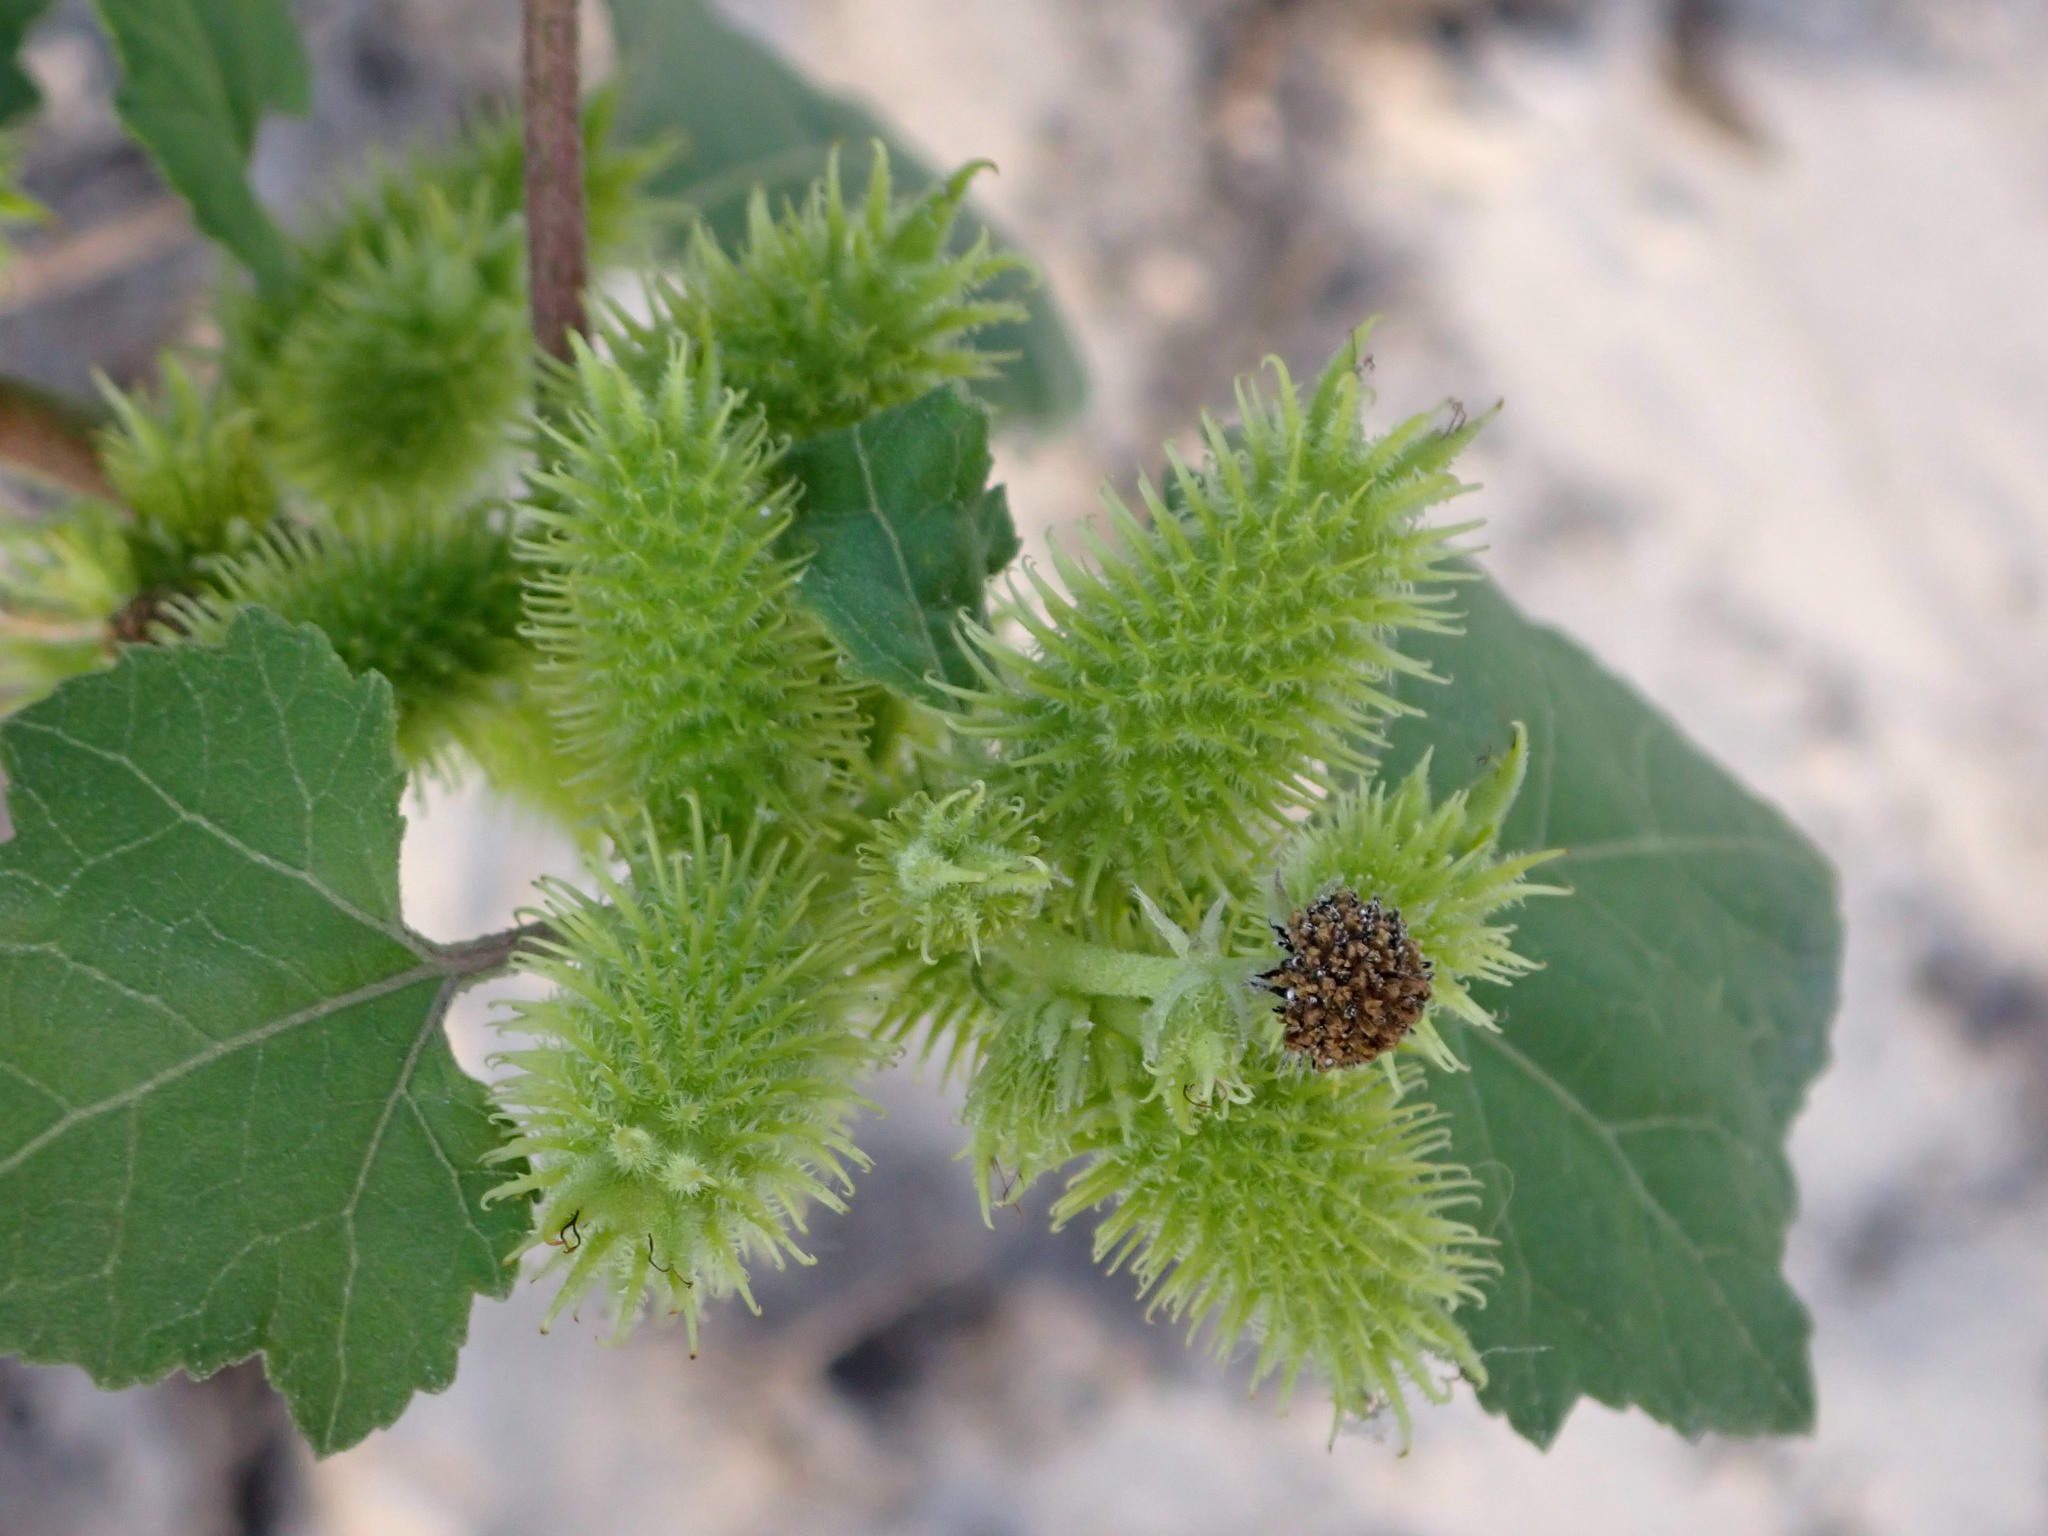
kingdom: Plantae
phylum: Tracheophyta
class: Magnoliopsida
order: Asterales
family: Asteraceae
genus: Xanthium
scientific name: Xanthium orientale
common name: Californian burr
